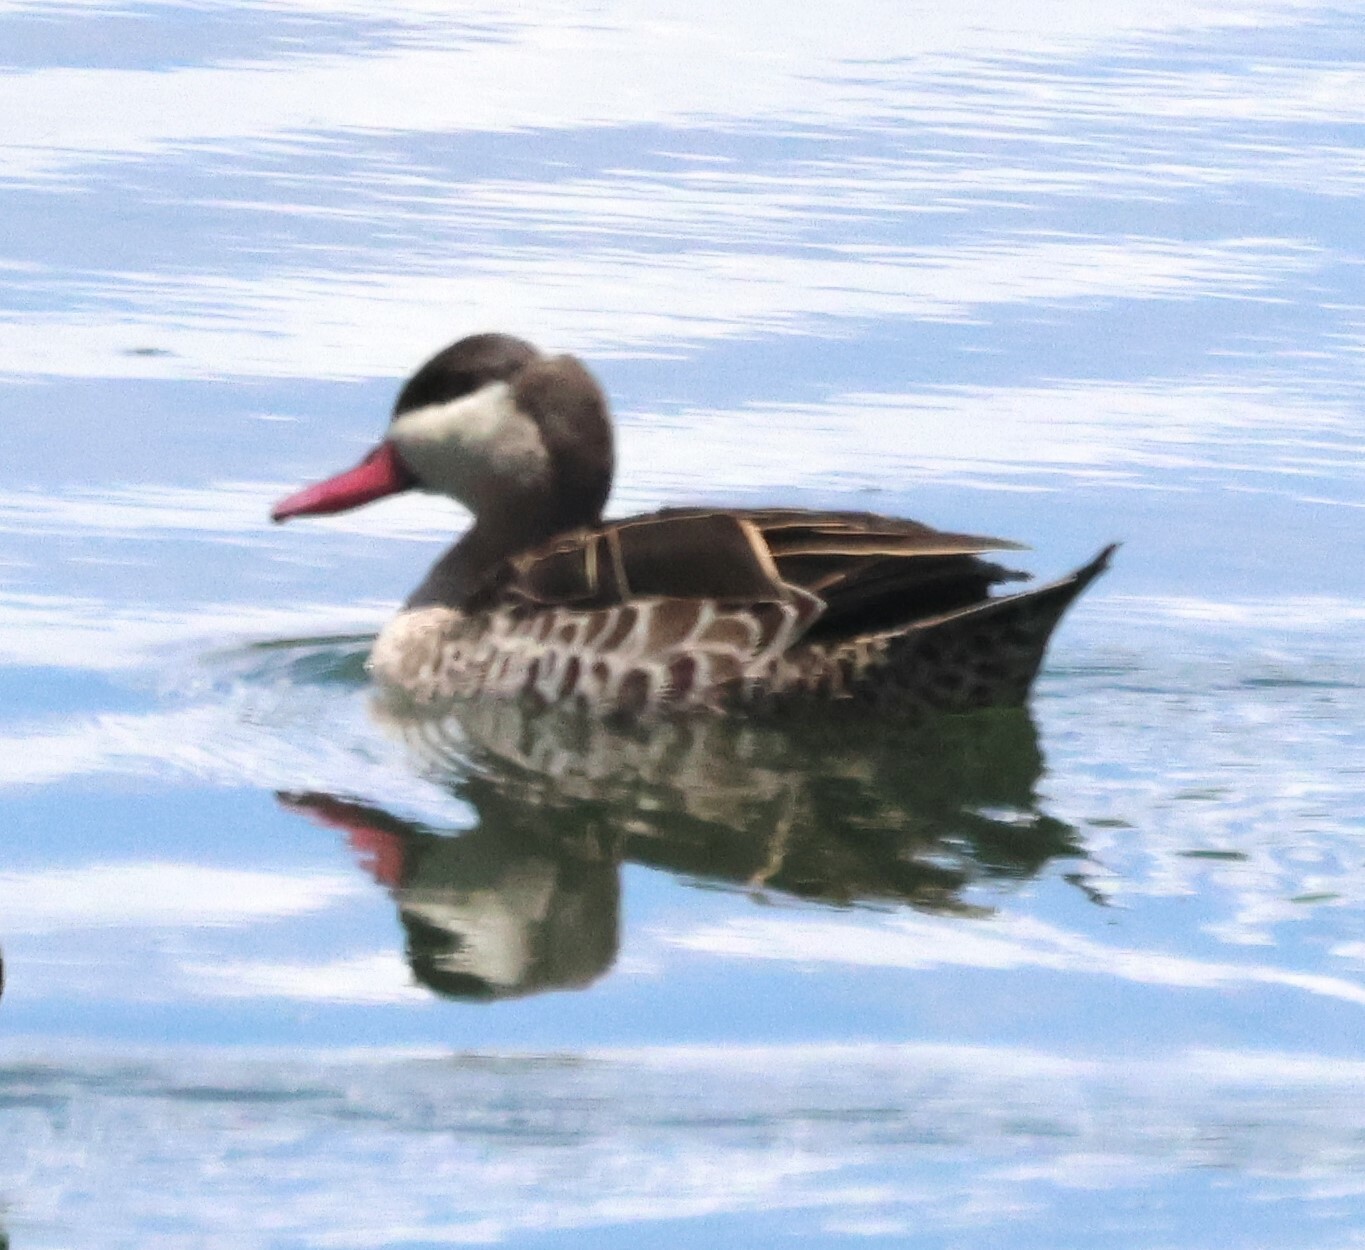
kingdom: Animalia
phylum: Chordata
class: Aves
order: Anseriformes
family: Anatidae
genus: Anas
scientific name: Anas erythrorhyncha
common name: Red-billed teal
